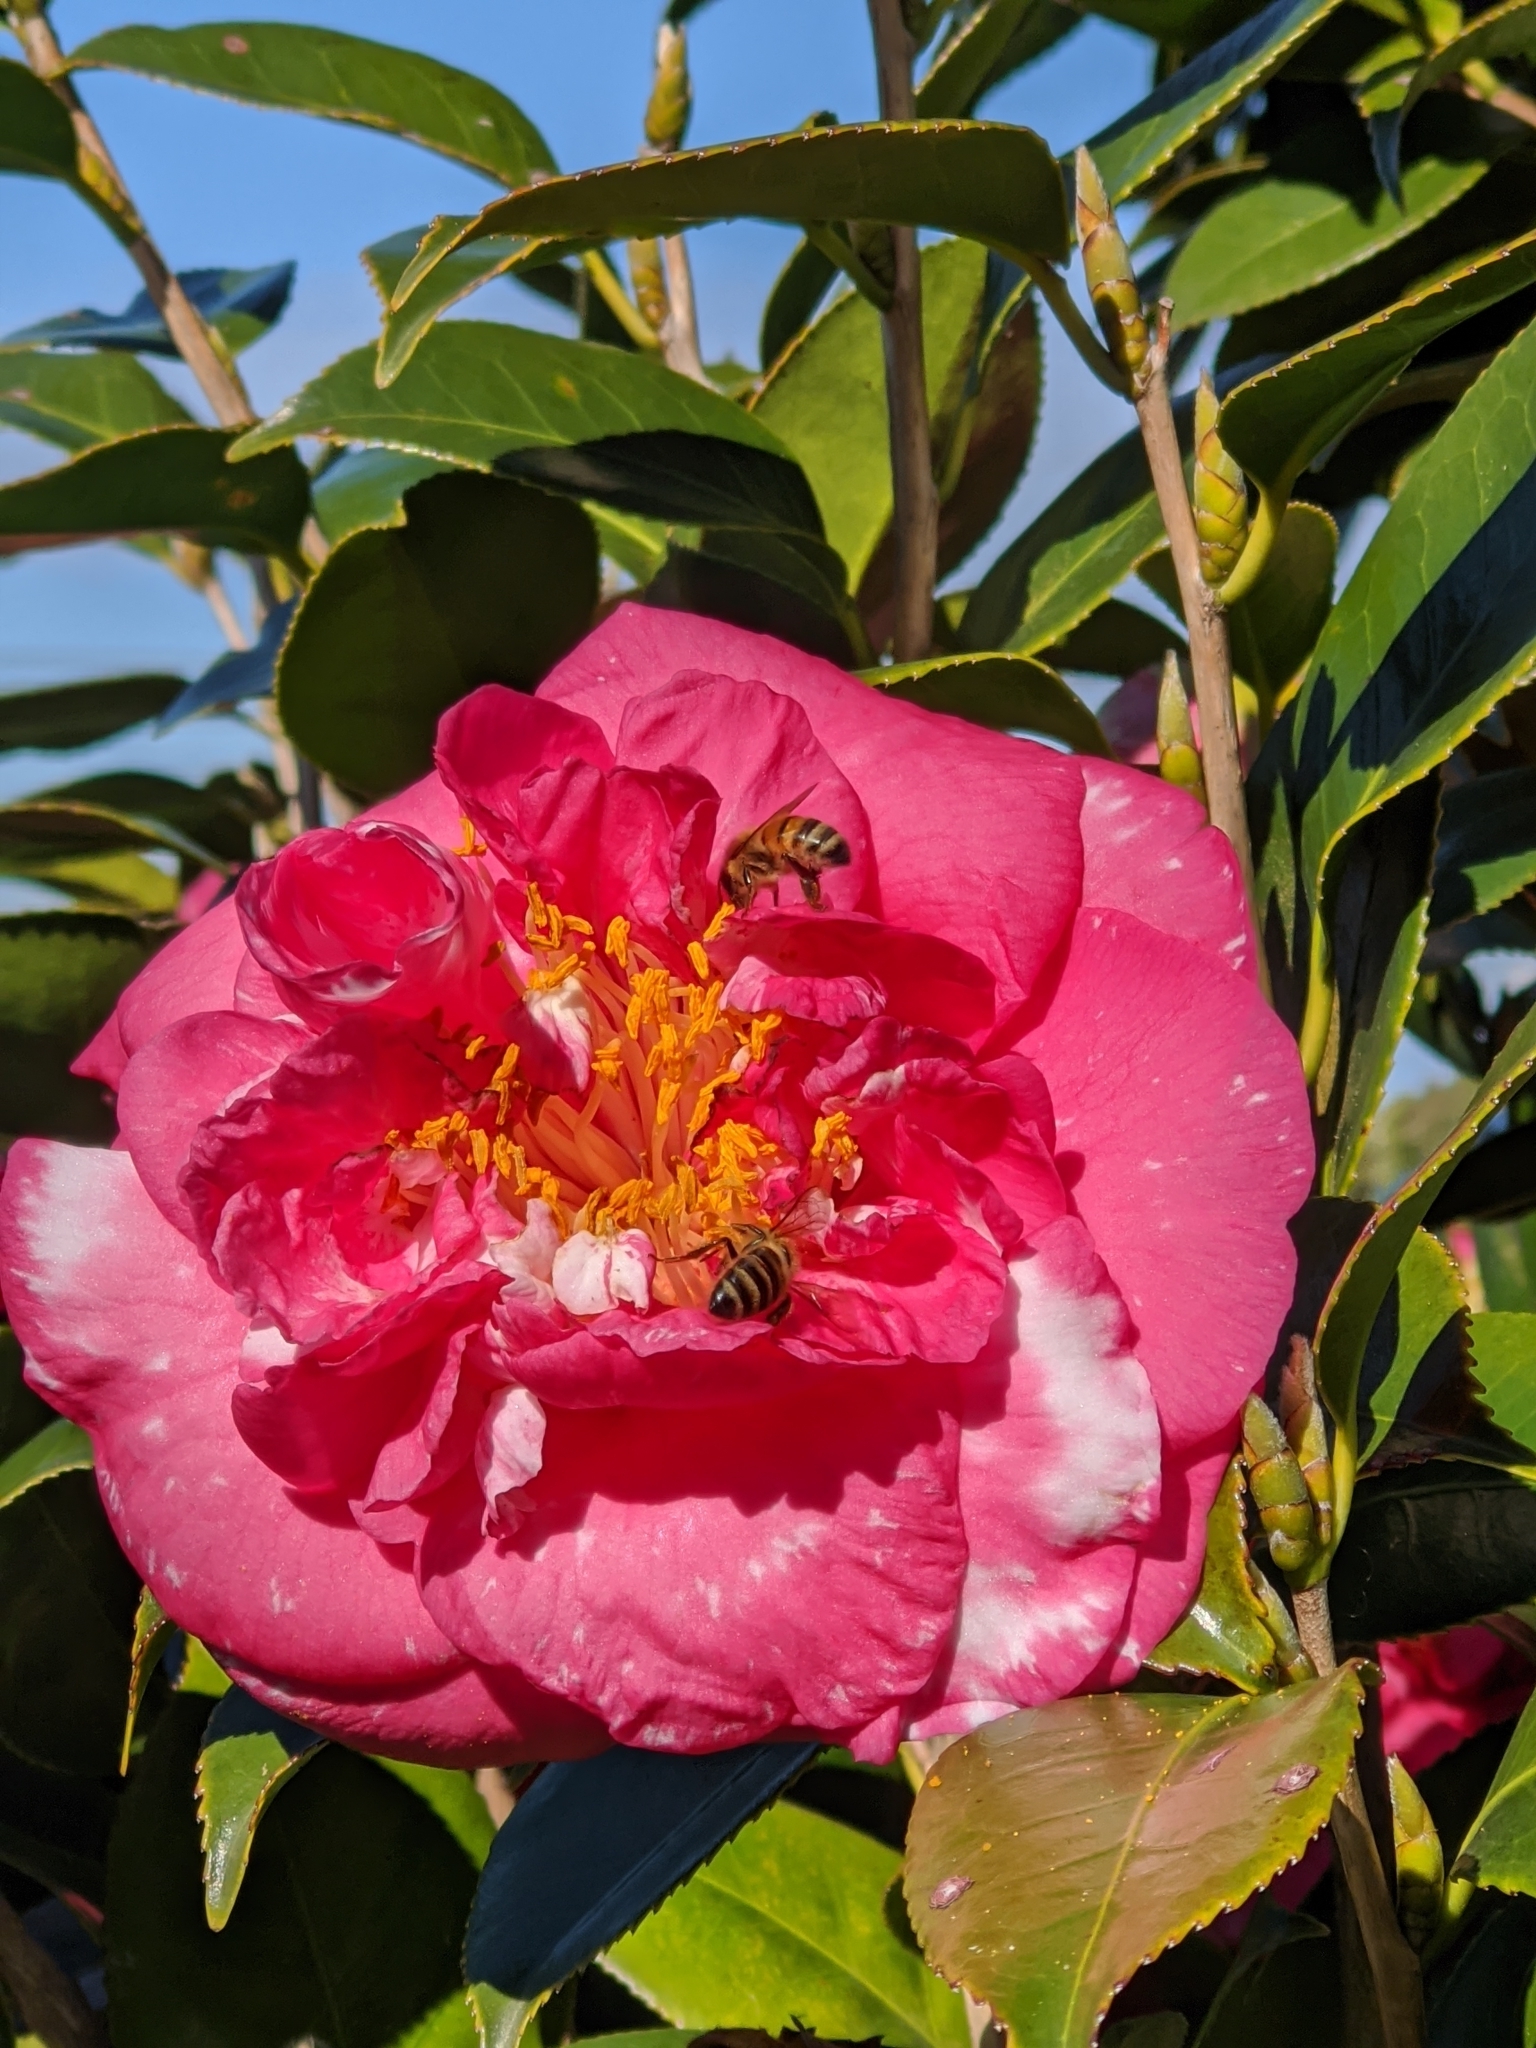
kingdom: Animalia
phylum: Arthropoda
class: Insecta
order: Hymenoptera
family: Apidae
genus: Apis
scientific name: Apis mellifera
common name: Honey bee
